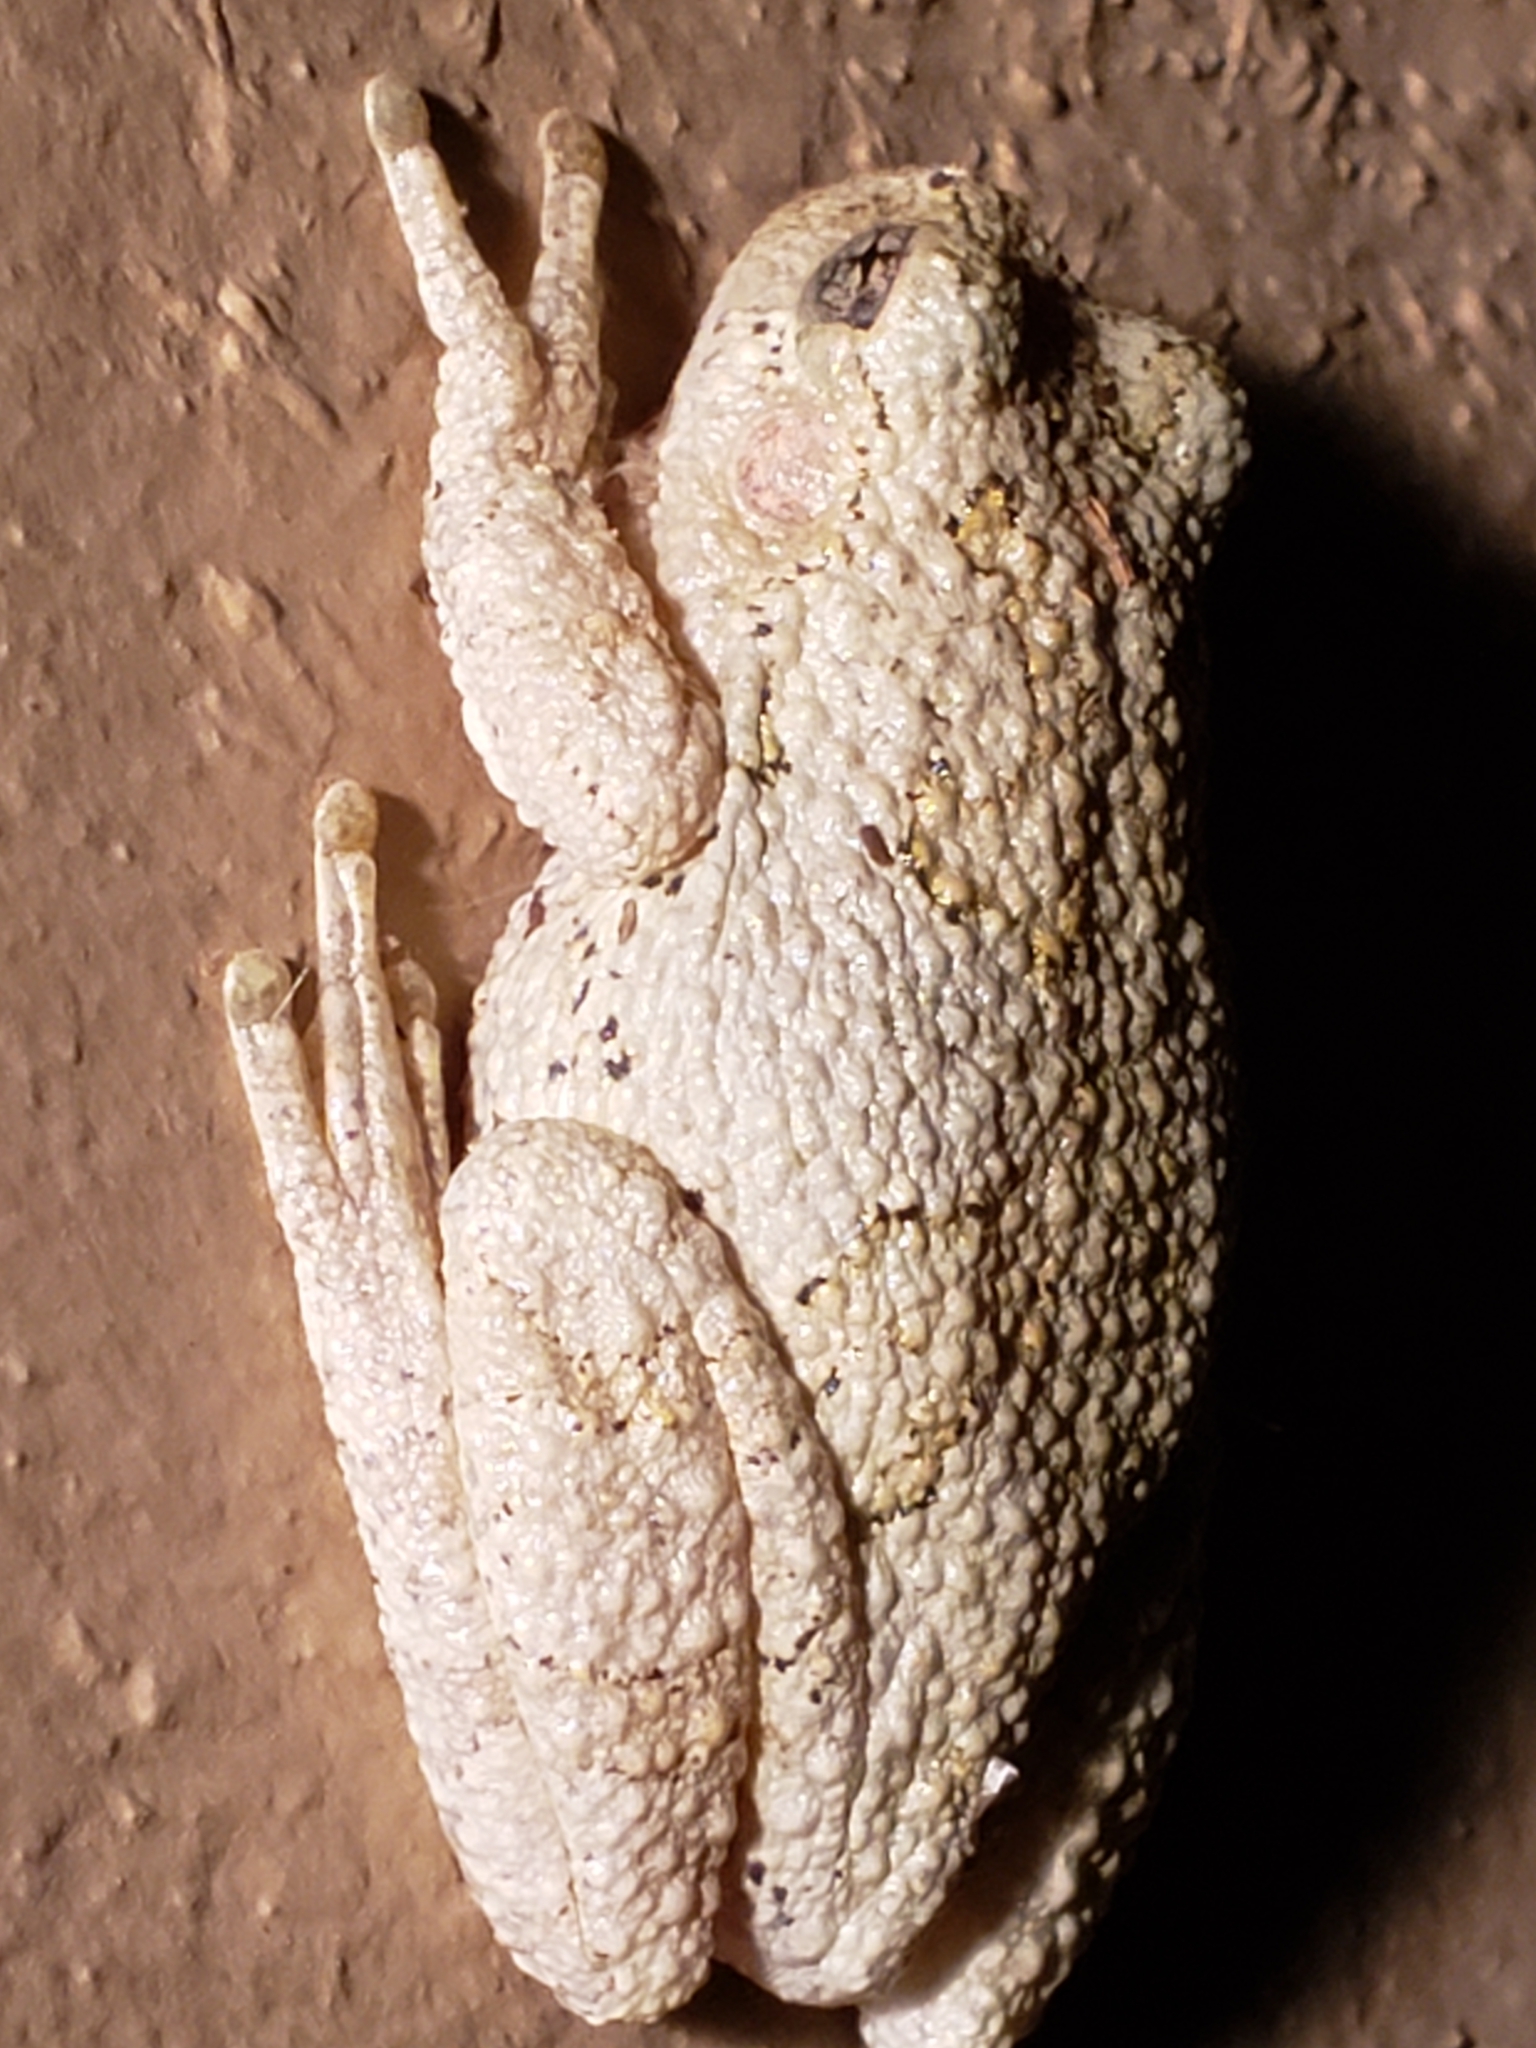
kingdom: Animalia
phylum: Chordata
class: Amphibia
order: Anura
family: Hylidae
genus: Hyla
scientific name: Hyla
